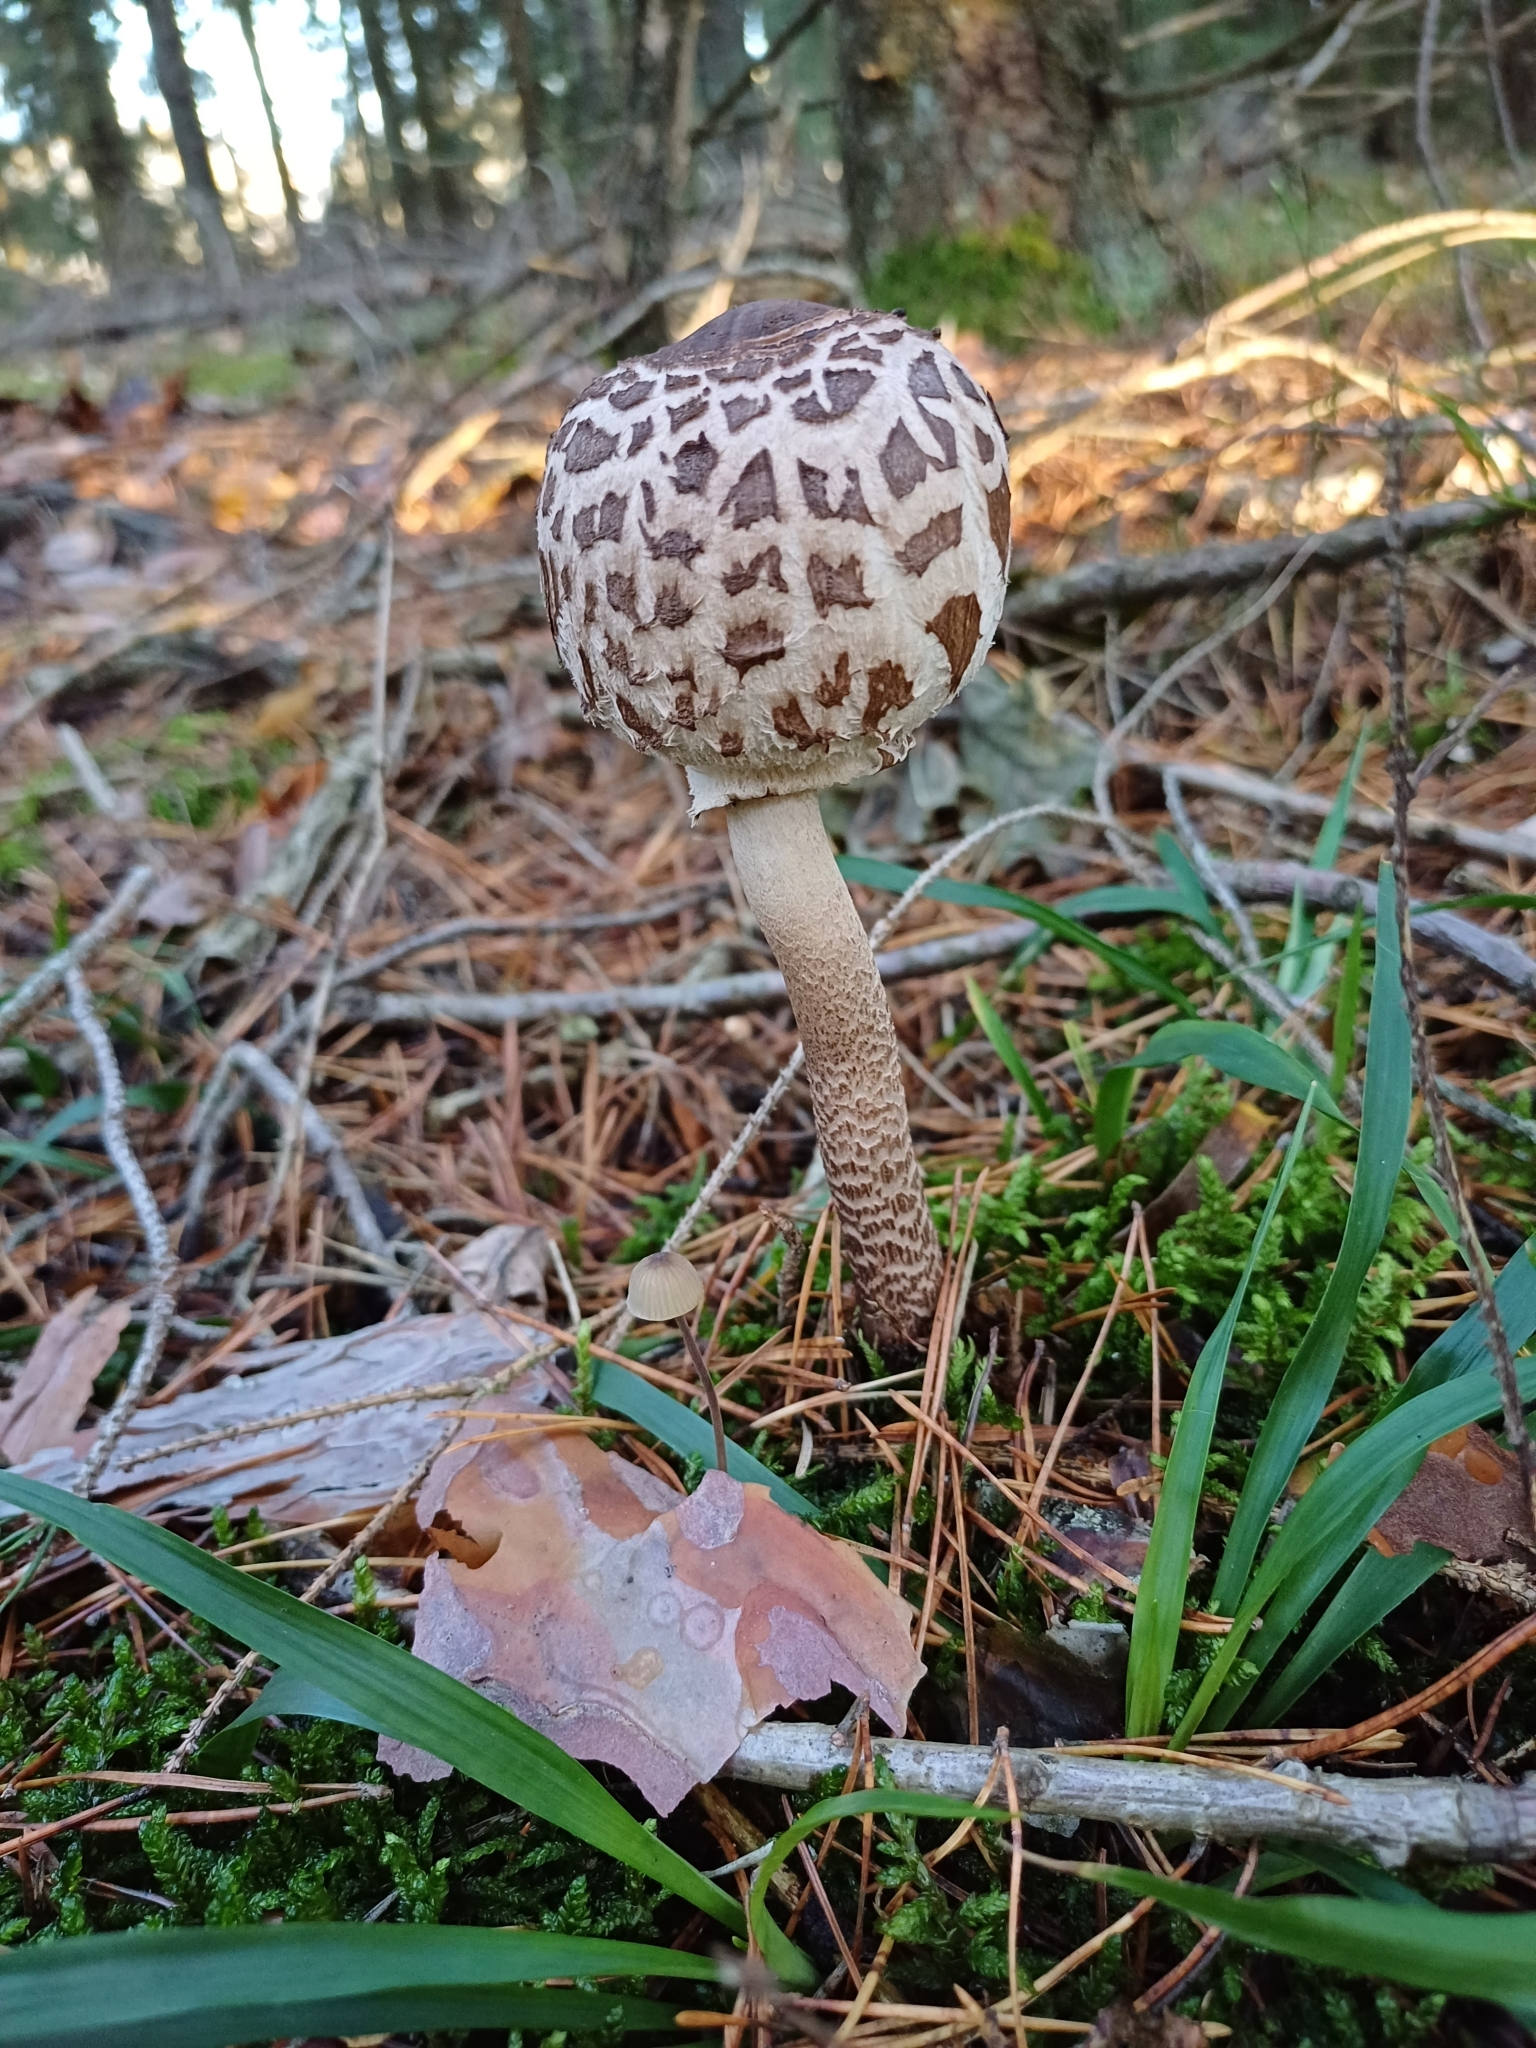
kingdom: Fungi
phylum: Basidiomycota
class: Agaricomycetes
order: Agaricales
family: Agaricaceae
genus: Macrolepiota
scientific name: Macrolepiota procera
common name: Parasol
